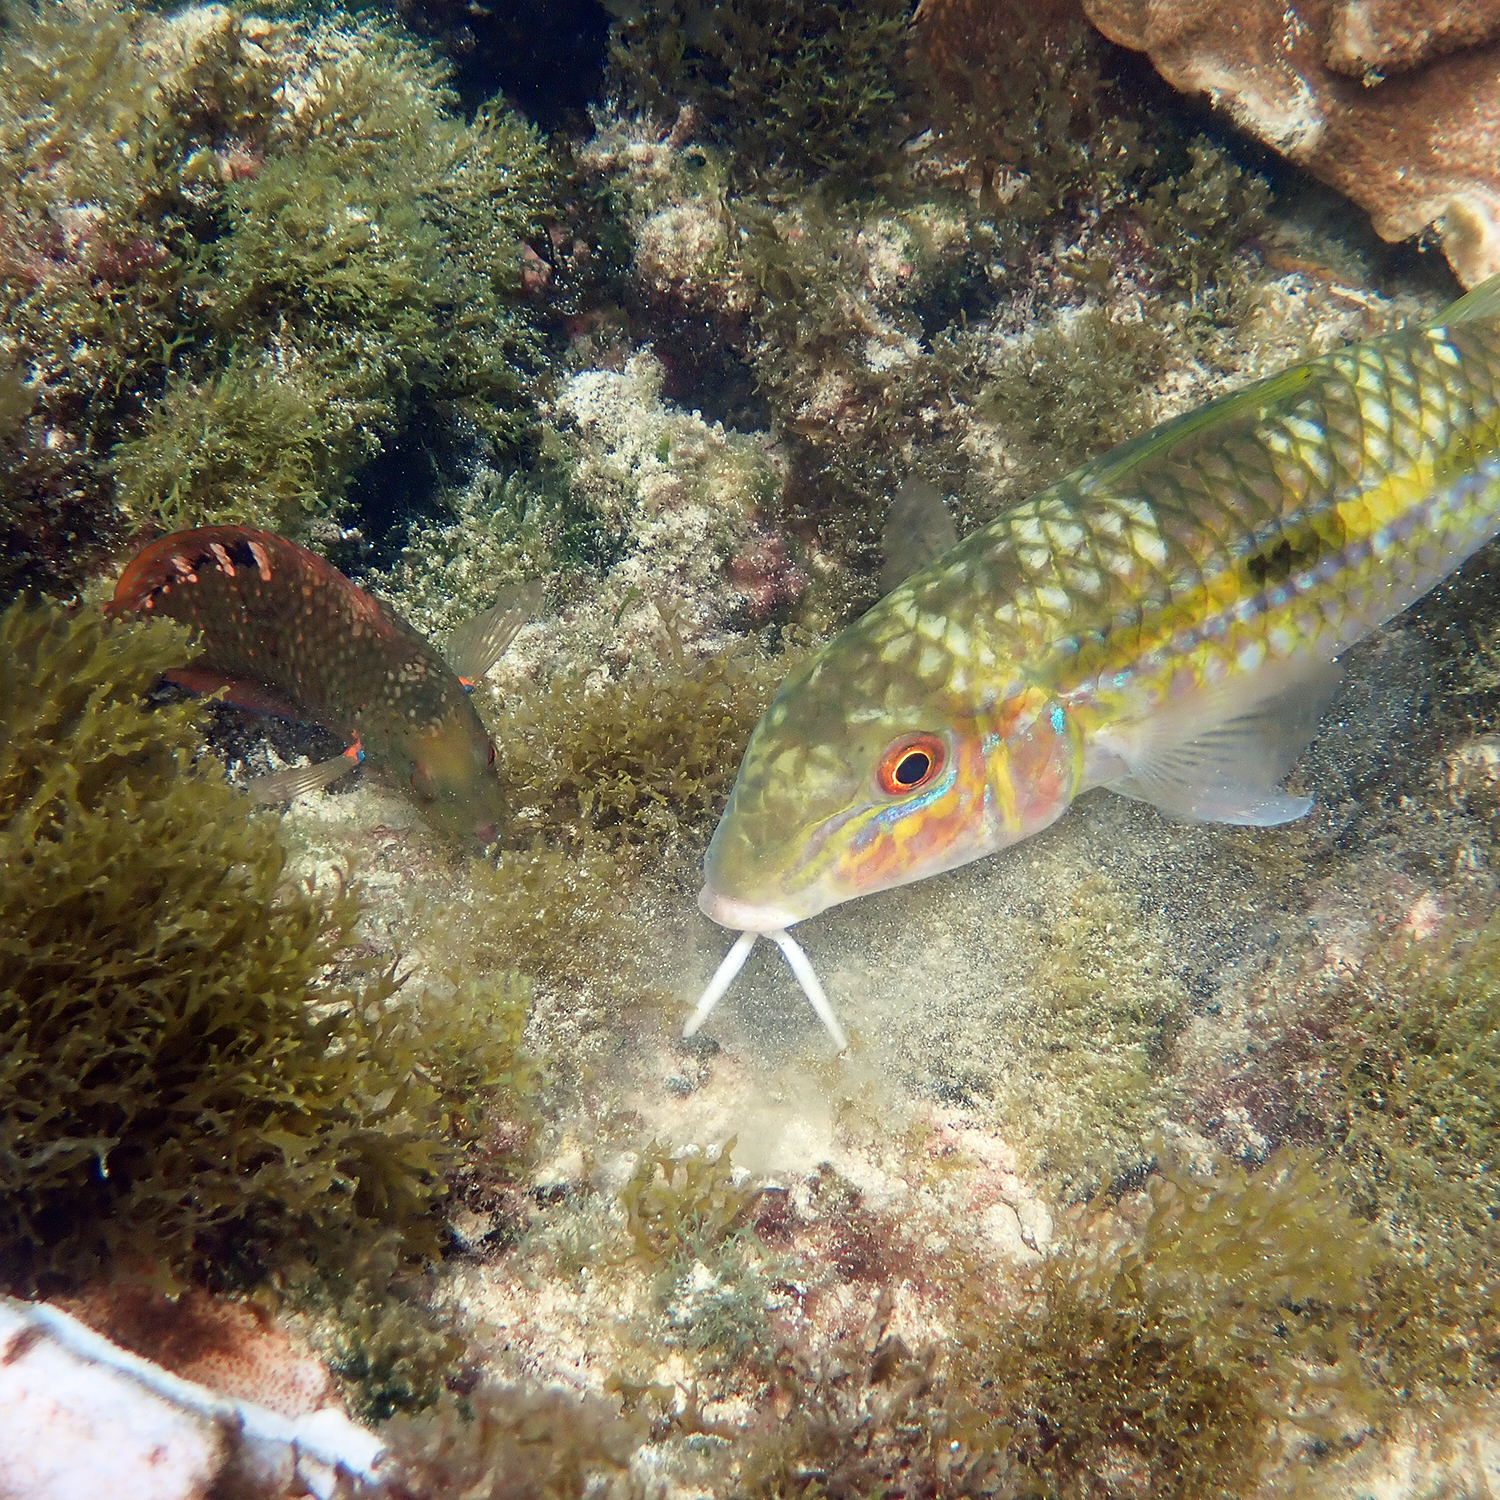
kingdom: Animalia
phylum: Chordata
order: Perciformes
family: Mullidae
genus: Mulloidichthys
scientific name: Mulloidichthys flavolineatus
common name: Yellowstripe goatfish
